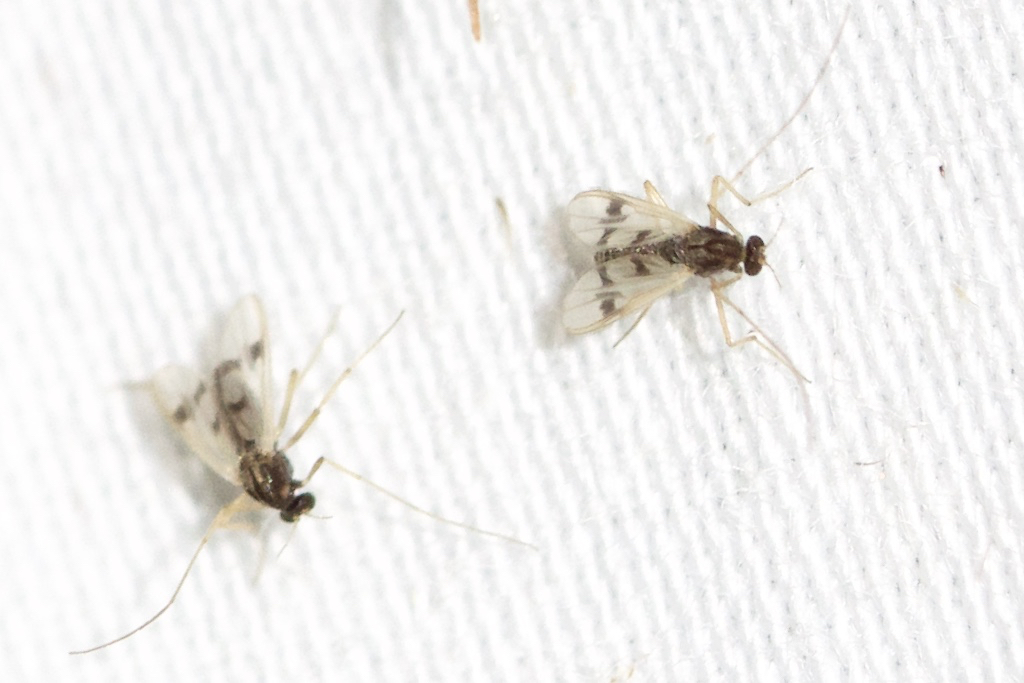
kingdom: Animalia
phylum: Arthropoda
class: Insecta
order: Diptera
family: Chironomidae
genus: Polypedilum
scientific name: Polypedilum scalaenum
